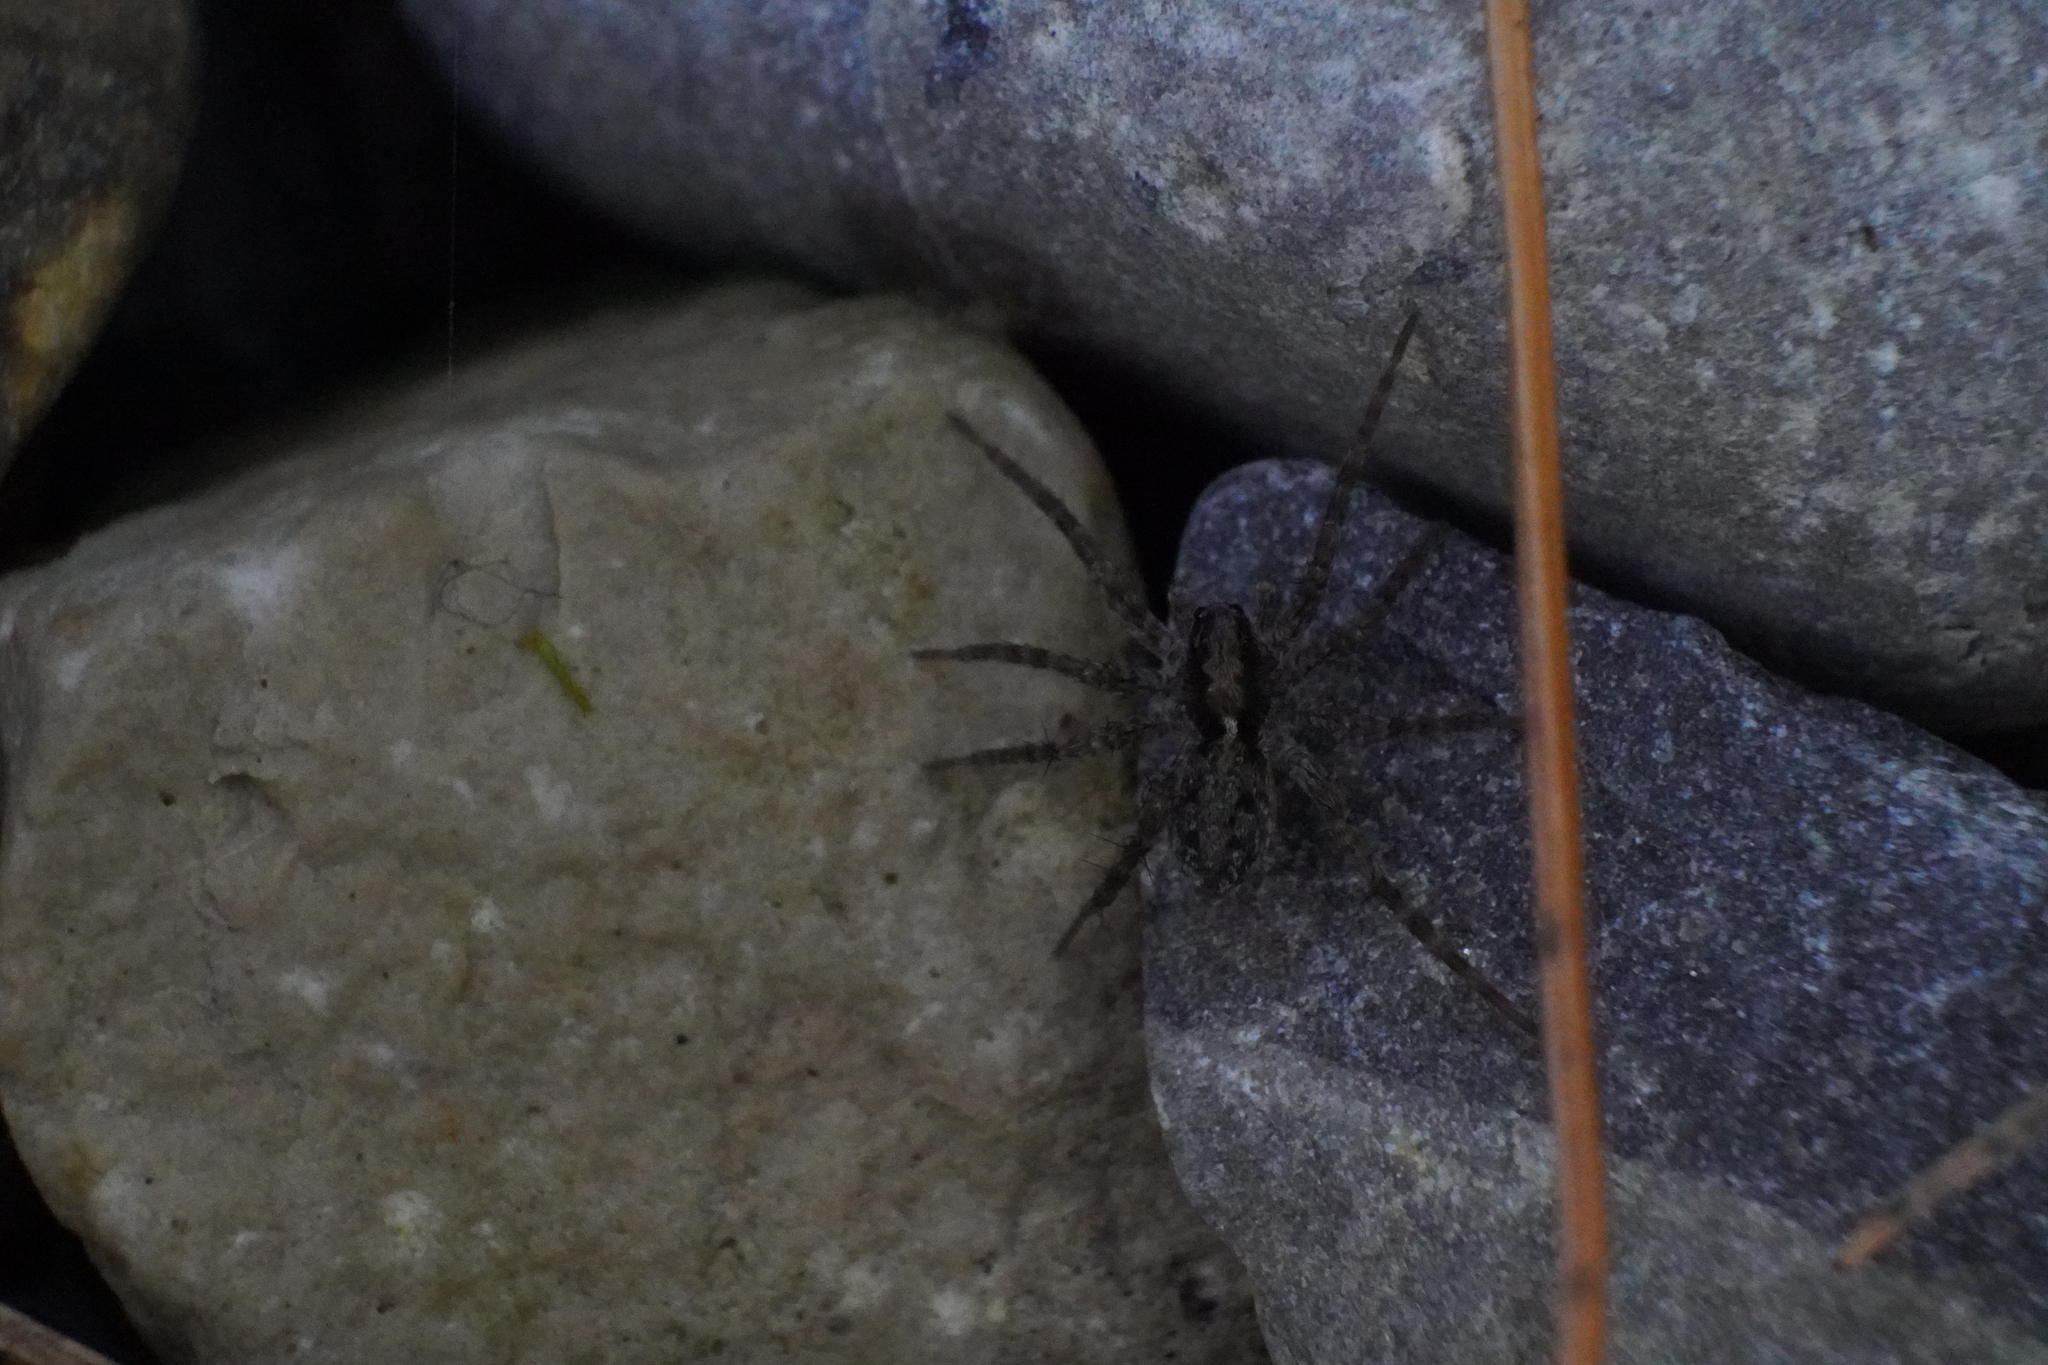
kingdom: Animalia
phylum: Arthropoda
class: Arachnida
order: Araneae
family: Lycosidae
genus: Pardosa
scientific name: Pardosa milvina
